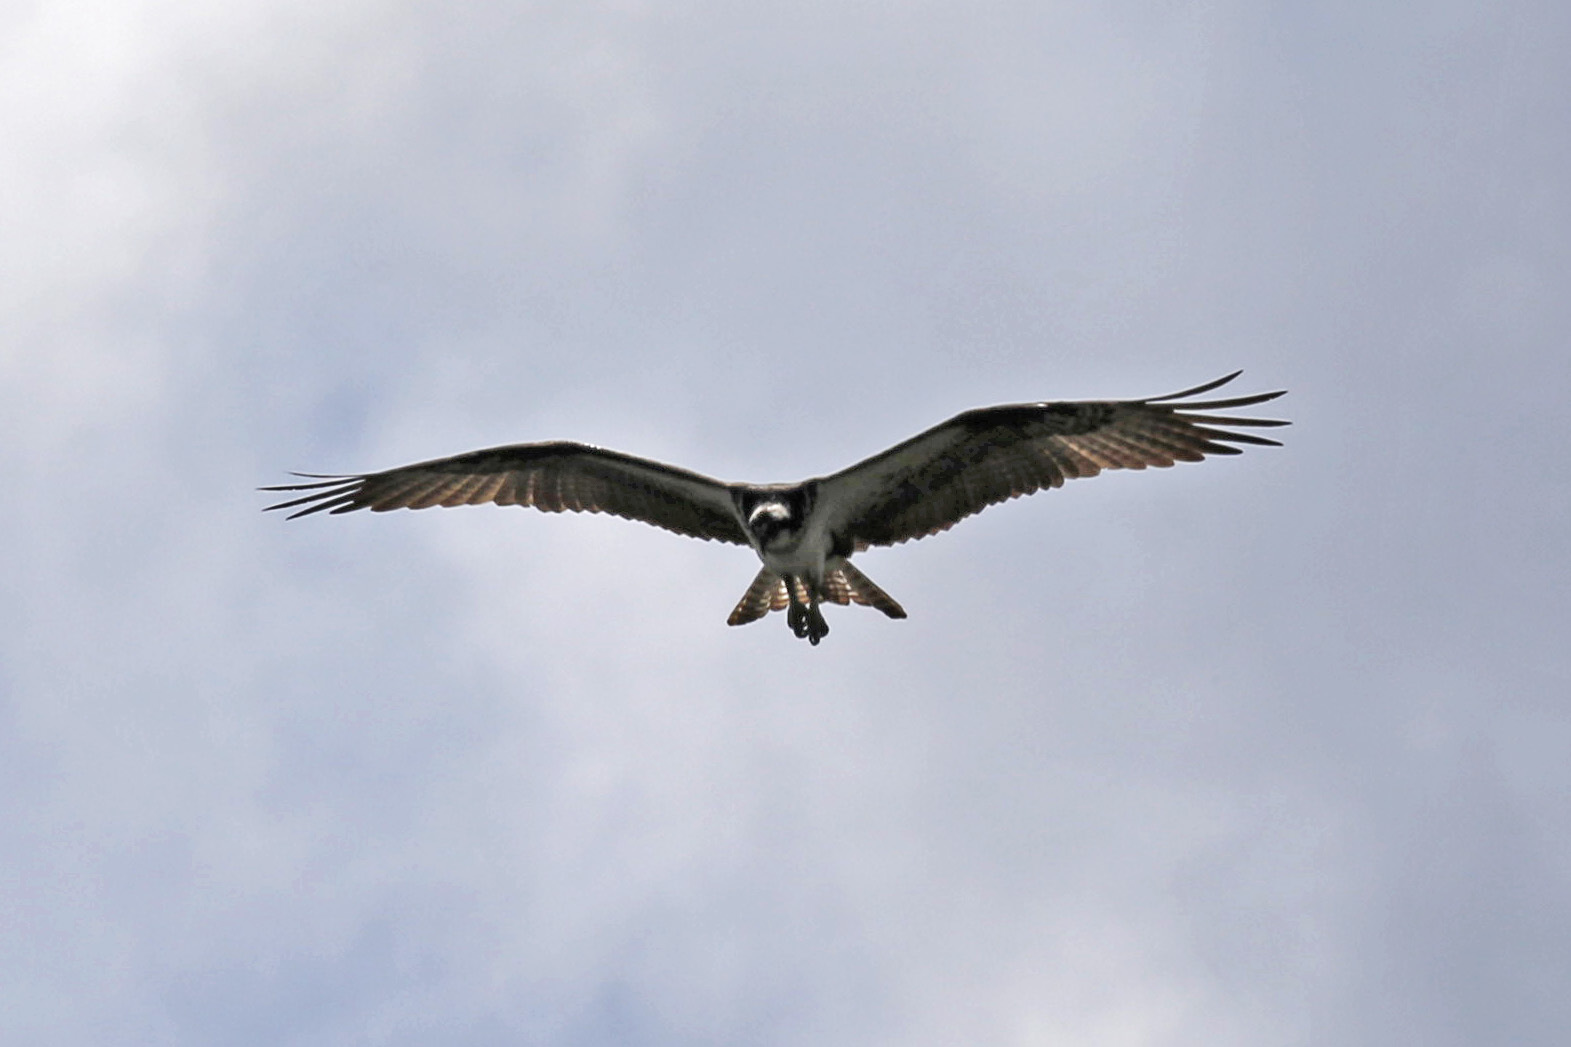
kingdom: Animalia
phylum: Chordata
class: Aves
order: Accipitriformes
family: Pandionidae
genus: Pandion
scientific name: Pandion haliaetus
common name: Osprey
